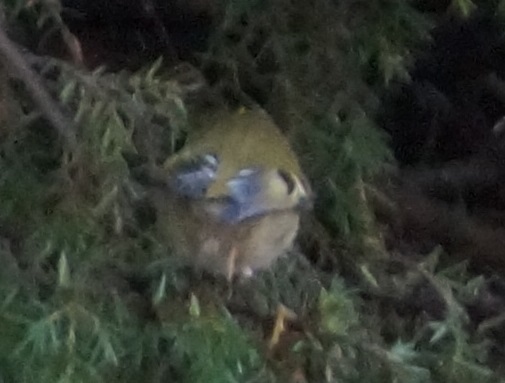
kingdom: Animalia
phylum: Chordata
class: Aves
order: Passeriformes
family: Regulidae
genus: Regulus
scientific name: Regulus regulus
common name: Goldcrest
